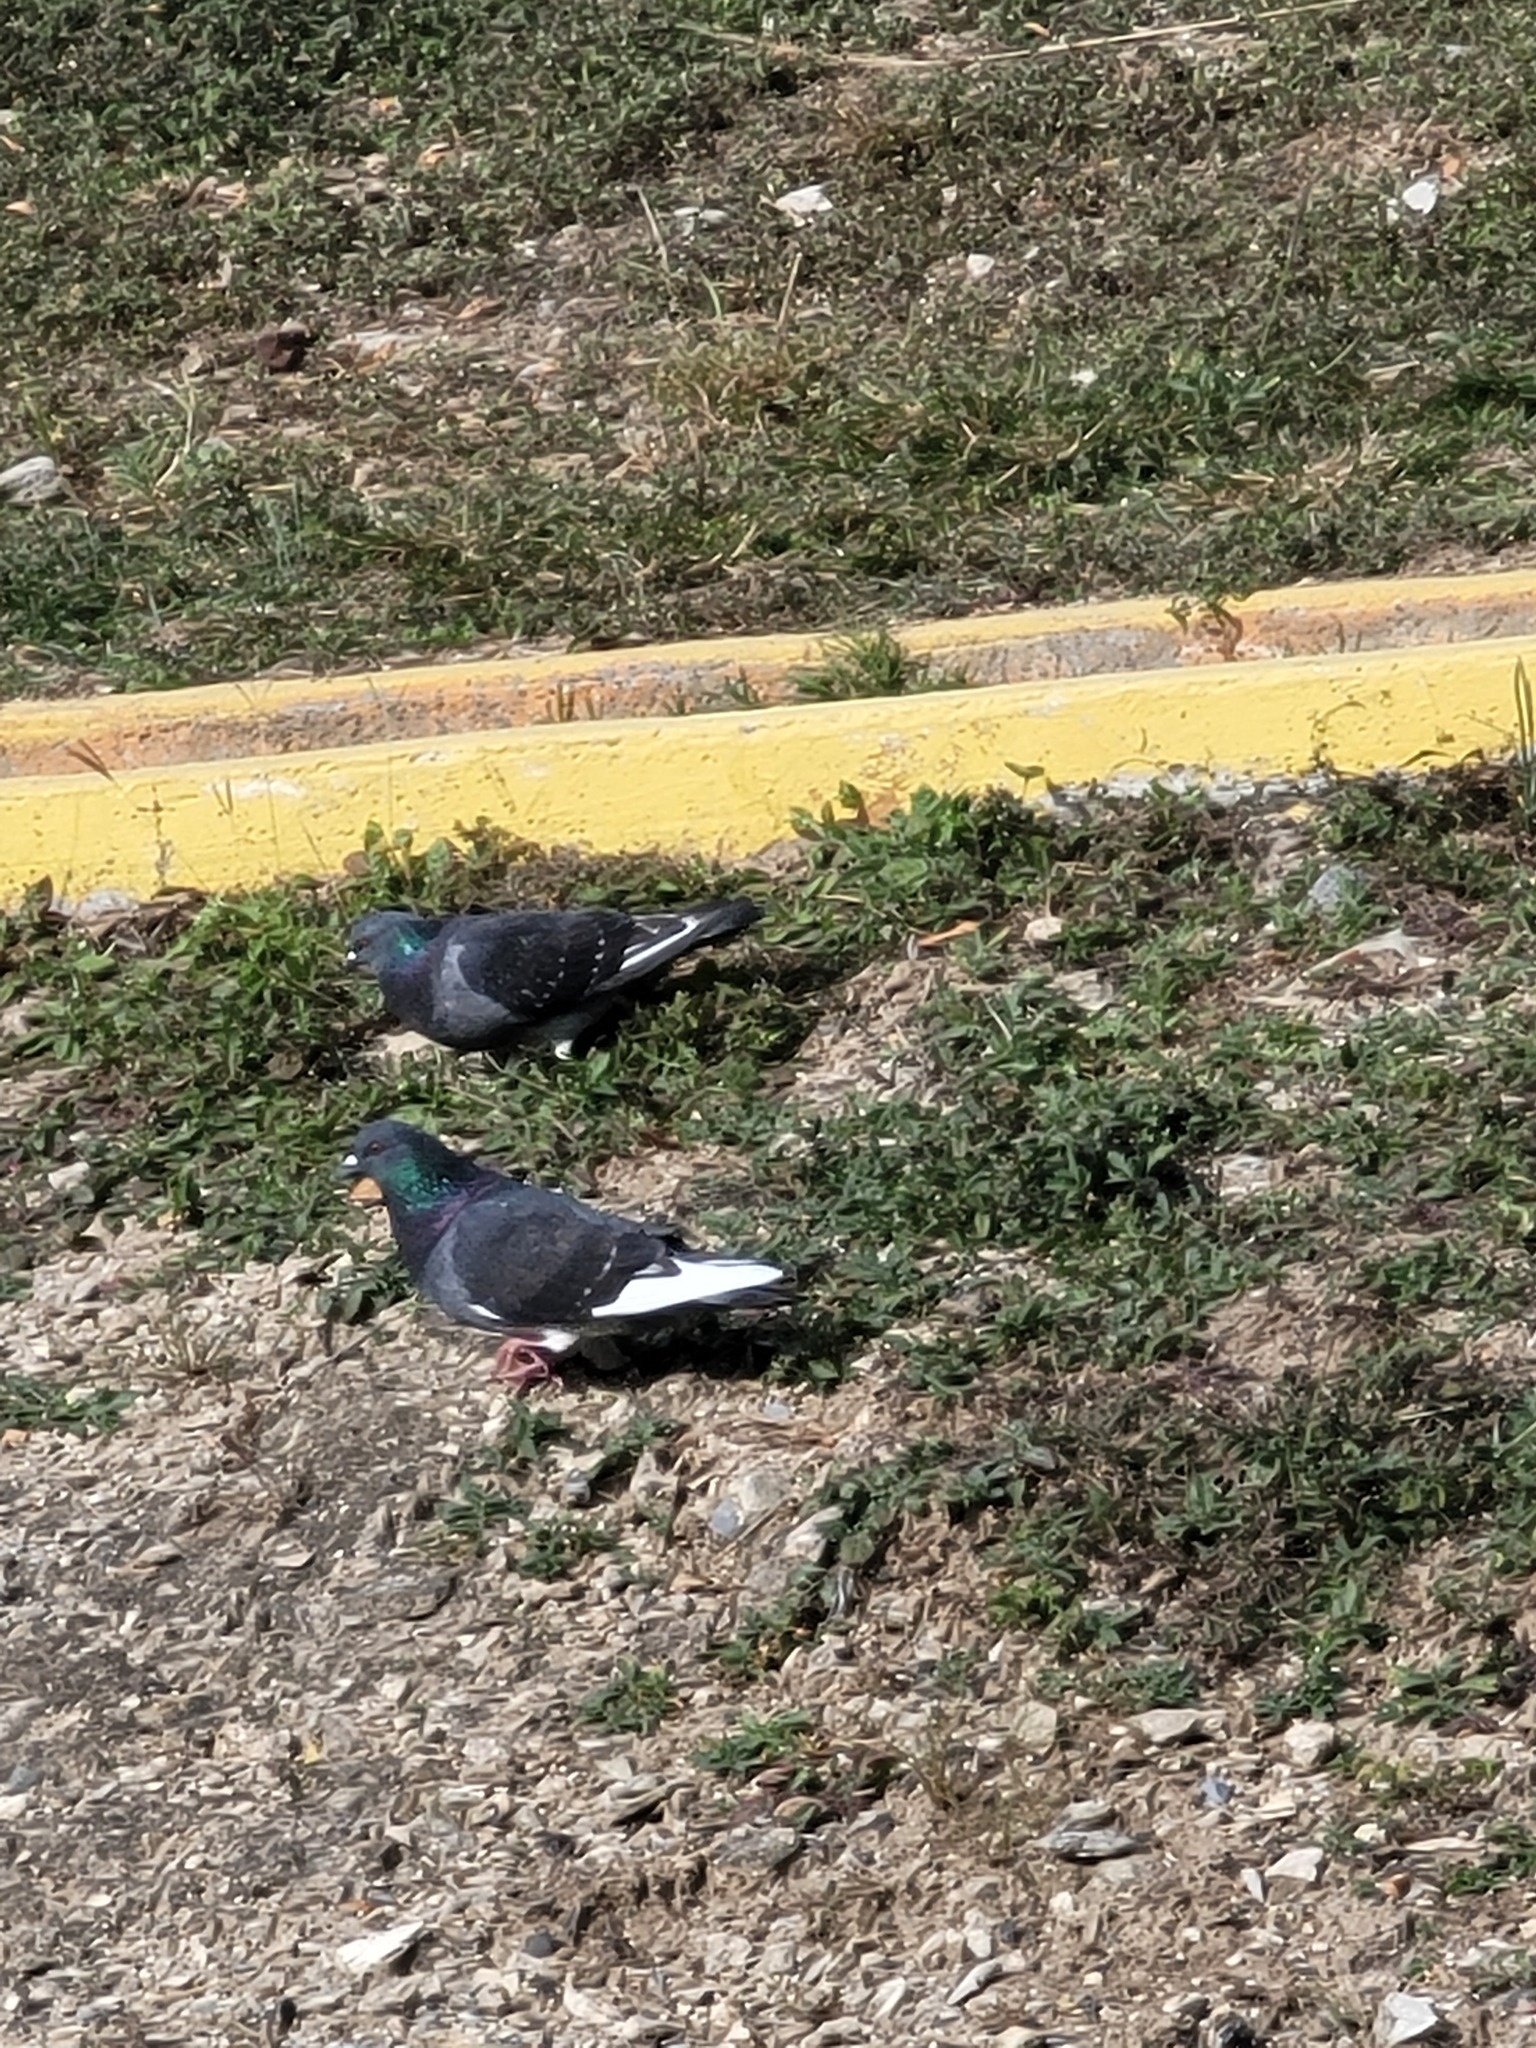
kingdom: Animalia
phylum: Chordata
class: Aves
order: Columbiformes
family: Columbidae
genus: Columba
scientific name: Columba livia
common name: Rock pigeon
